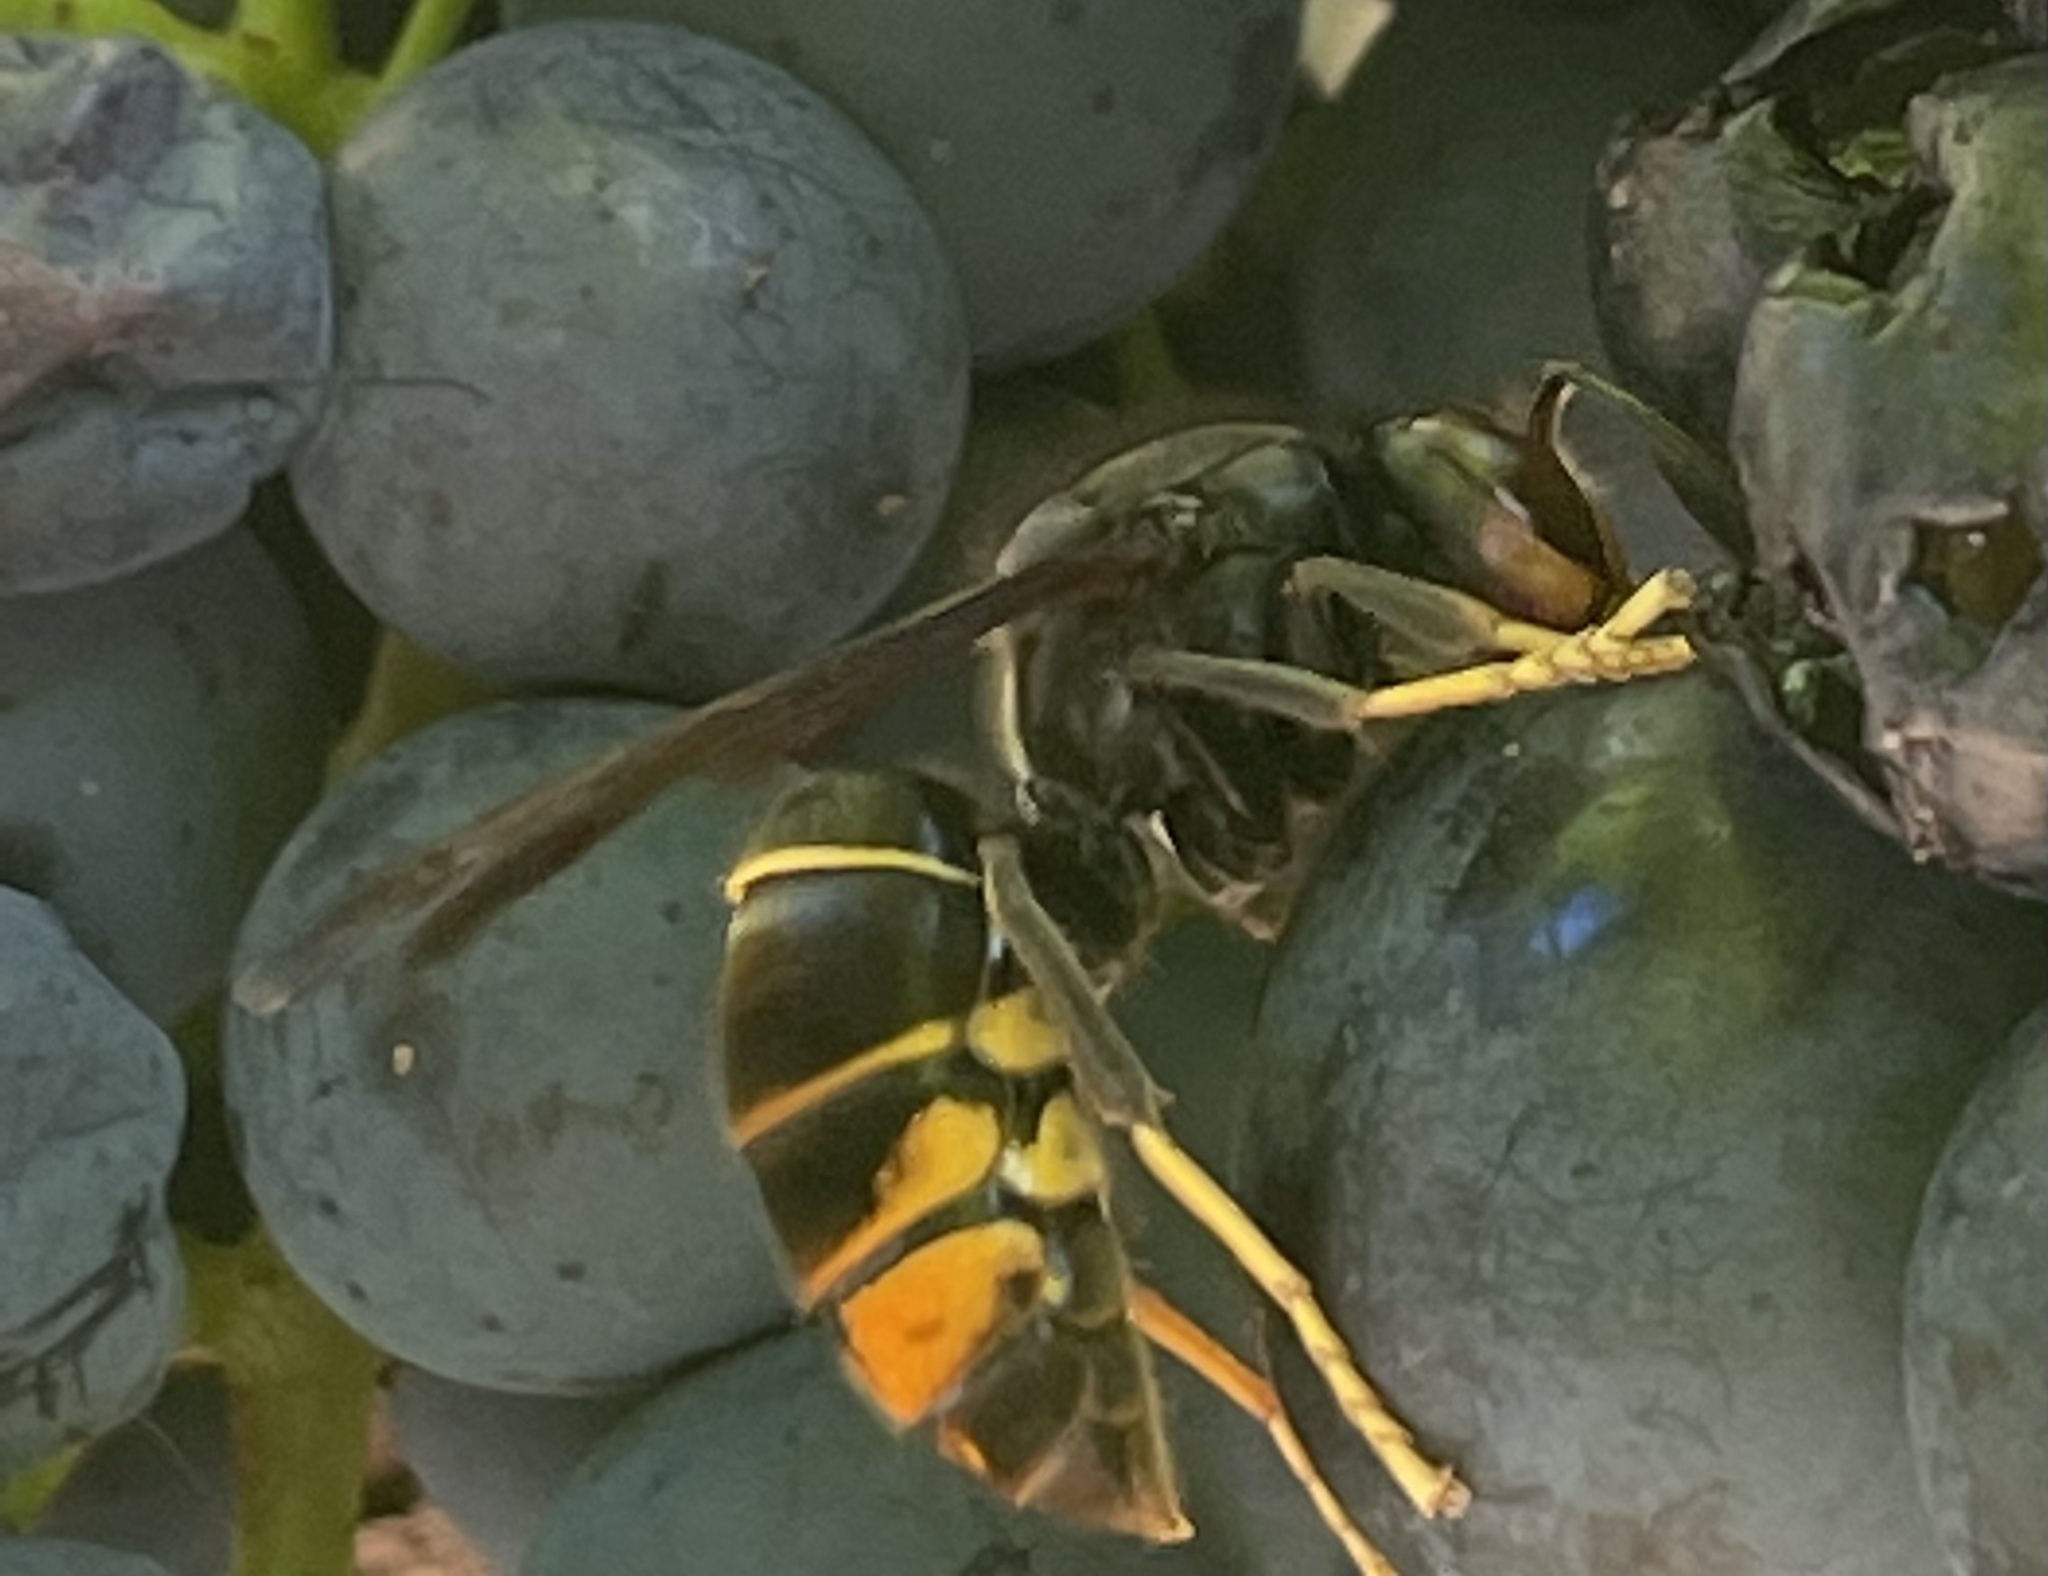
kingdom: Animalia
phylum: Arthropoda
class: Insecta
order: Hymenoptera
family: Vespidae
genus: Vespa
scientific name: Vespa velutina
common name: Asian hornet
